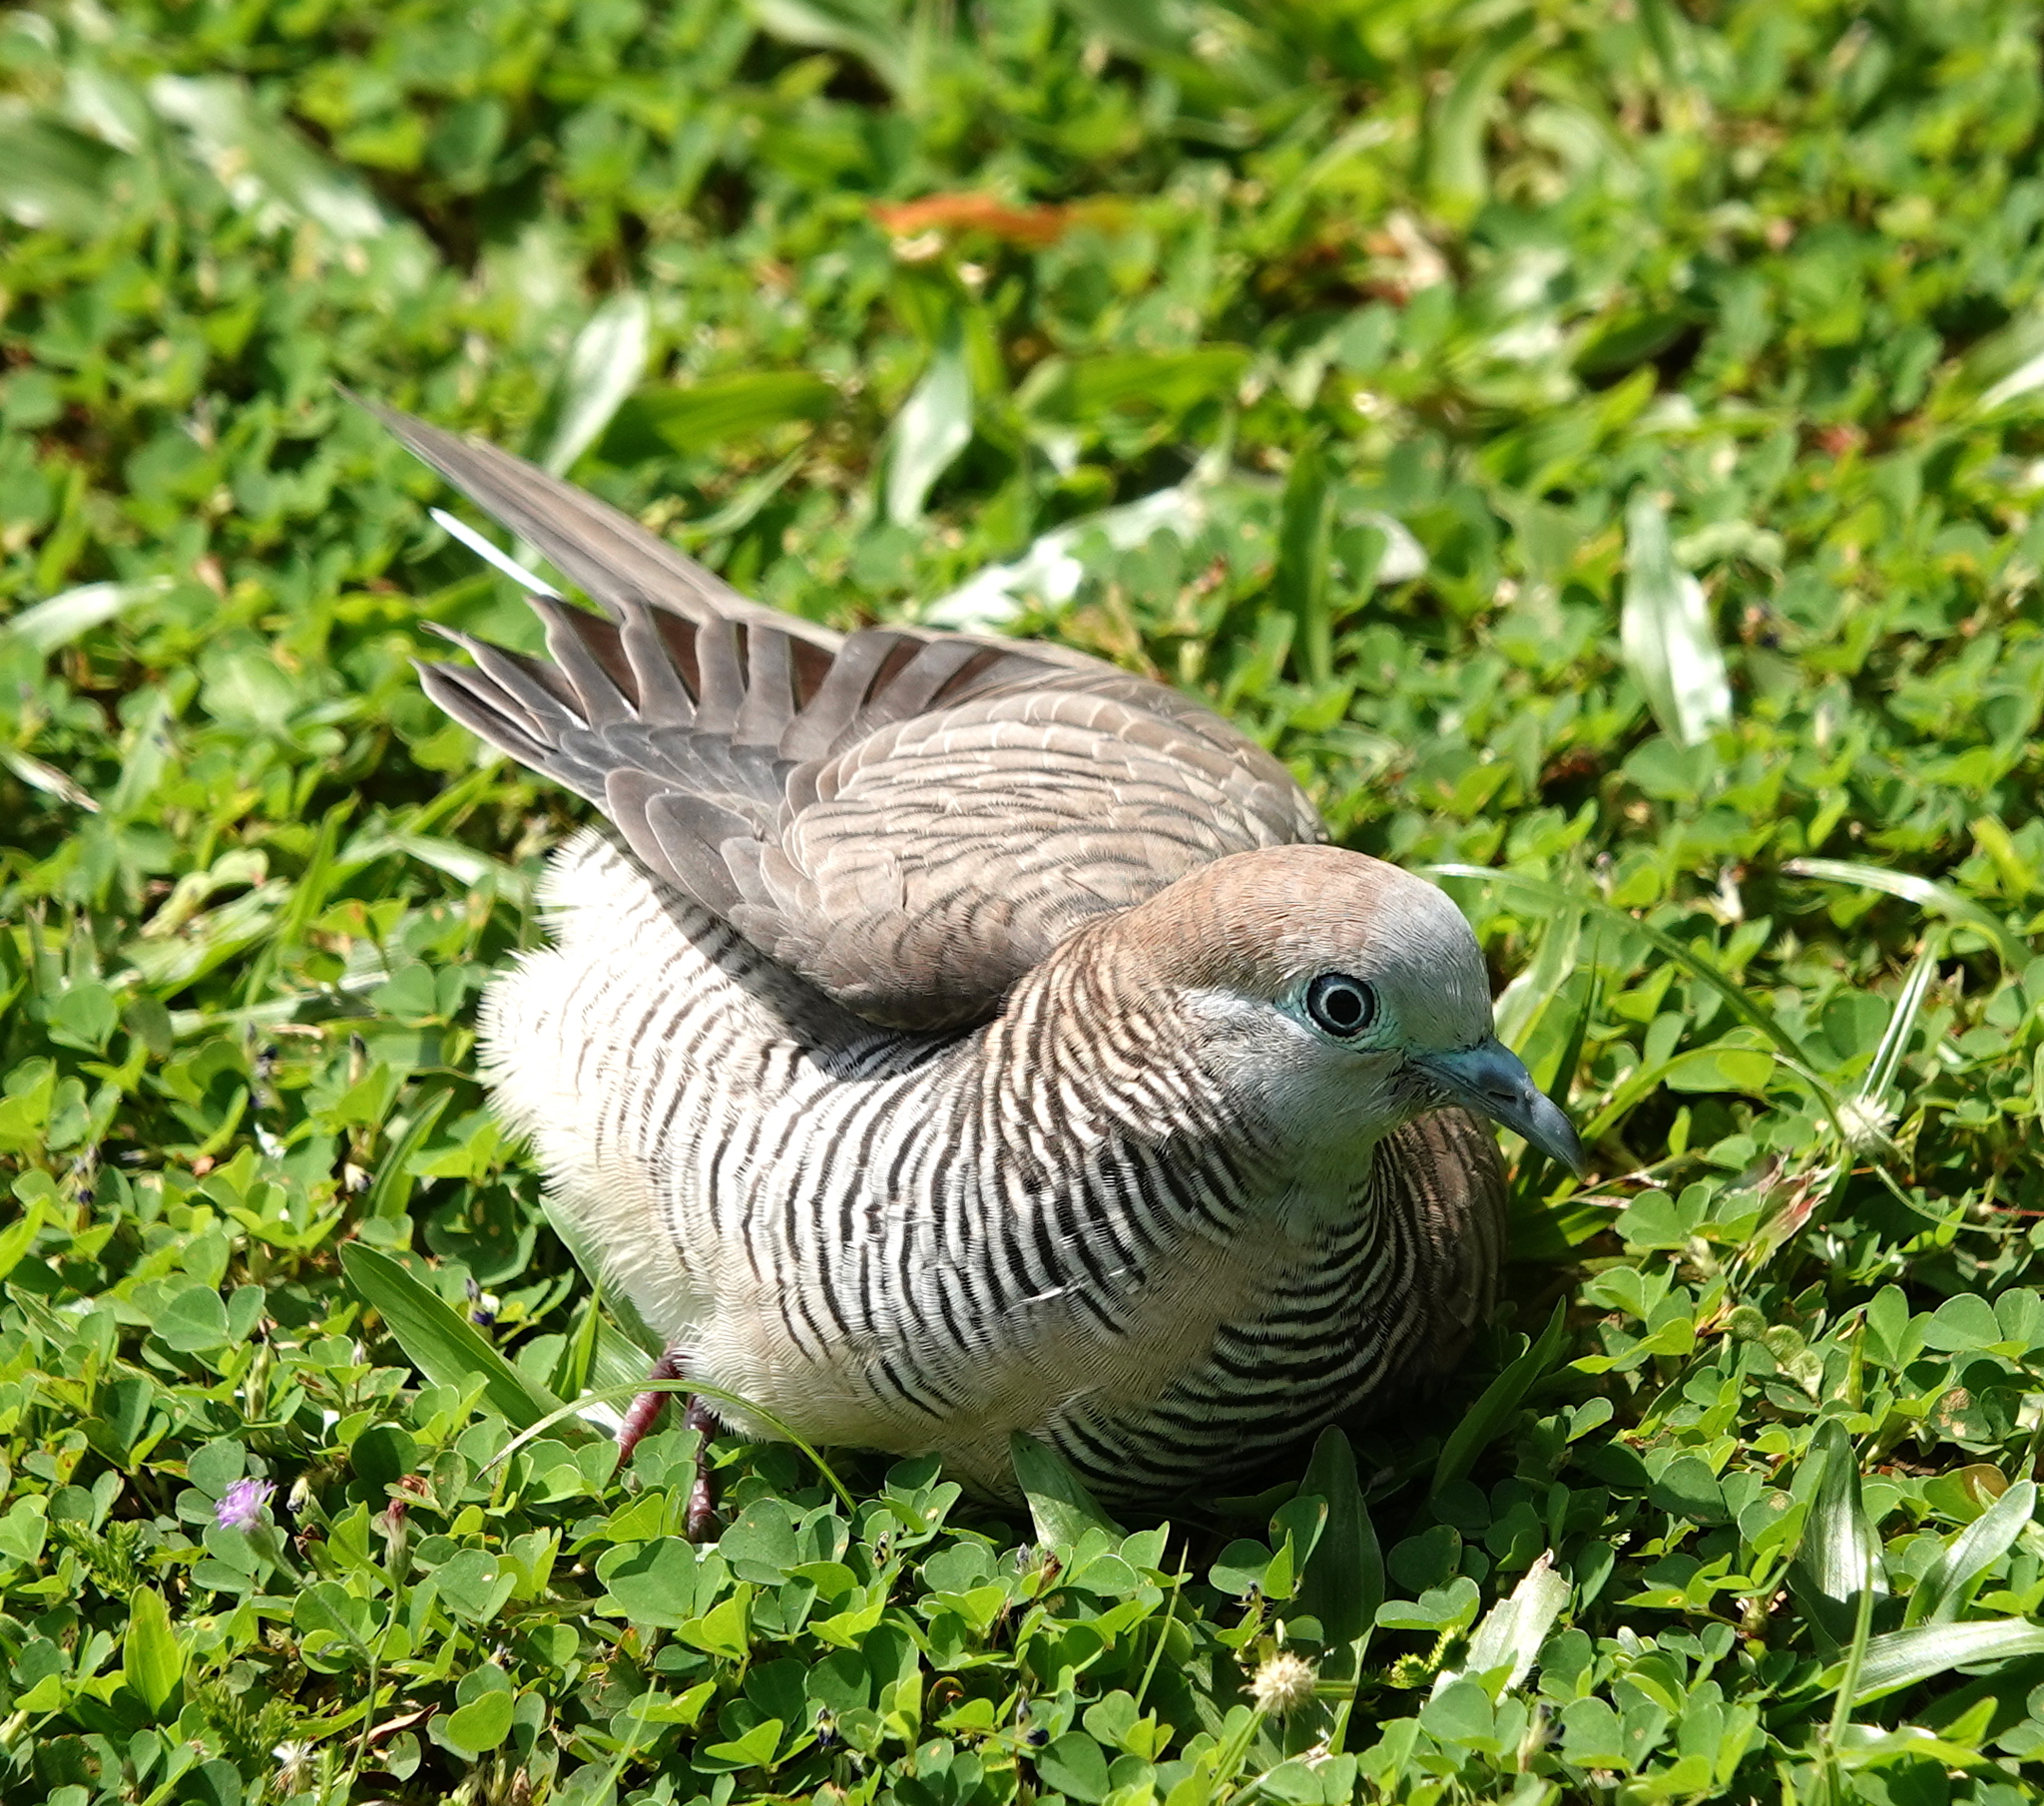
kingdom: Animalia
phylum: Chordata
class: Aves
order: Columbiformes
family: Columbidae
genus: Geopelia
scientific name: Geopelia striata
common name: Zebra dove
